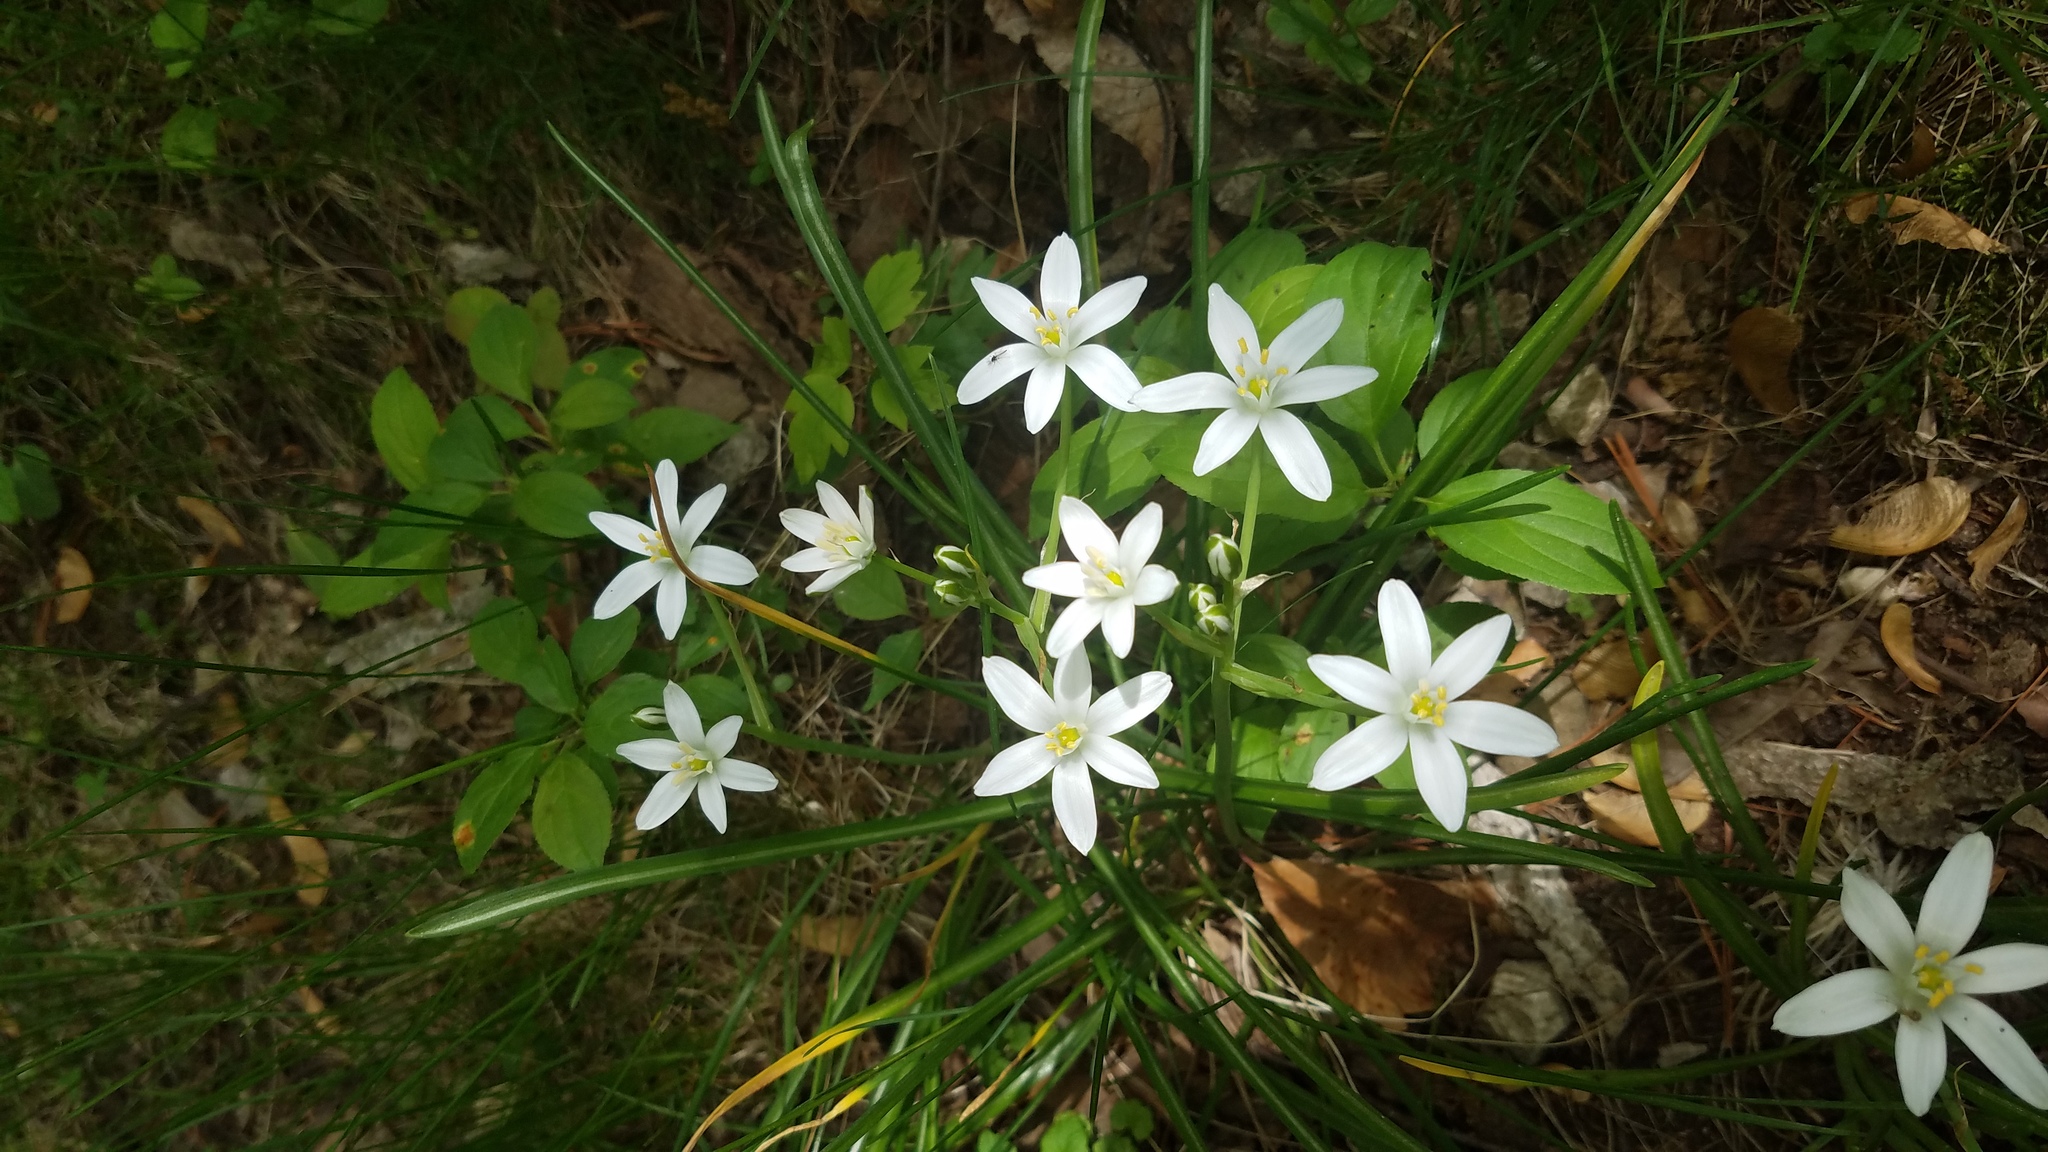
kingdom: Plantae
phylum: Tracheophyta
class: Liliopsida
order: Asparagales
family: Asparagaceae
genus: Ornithogalum
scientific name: Ornithogalum umbellatum
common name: Garden star-of-bethlehem
